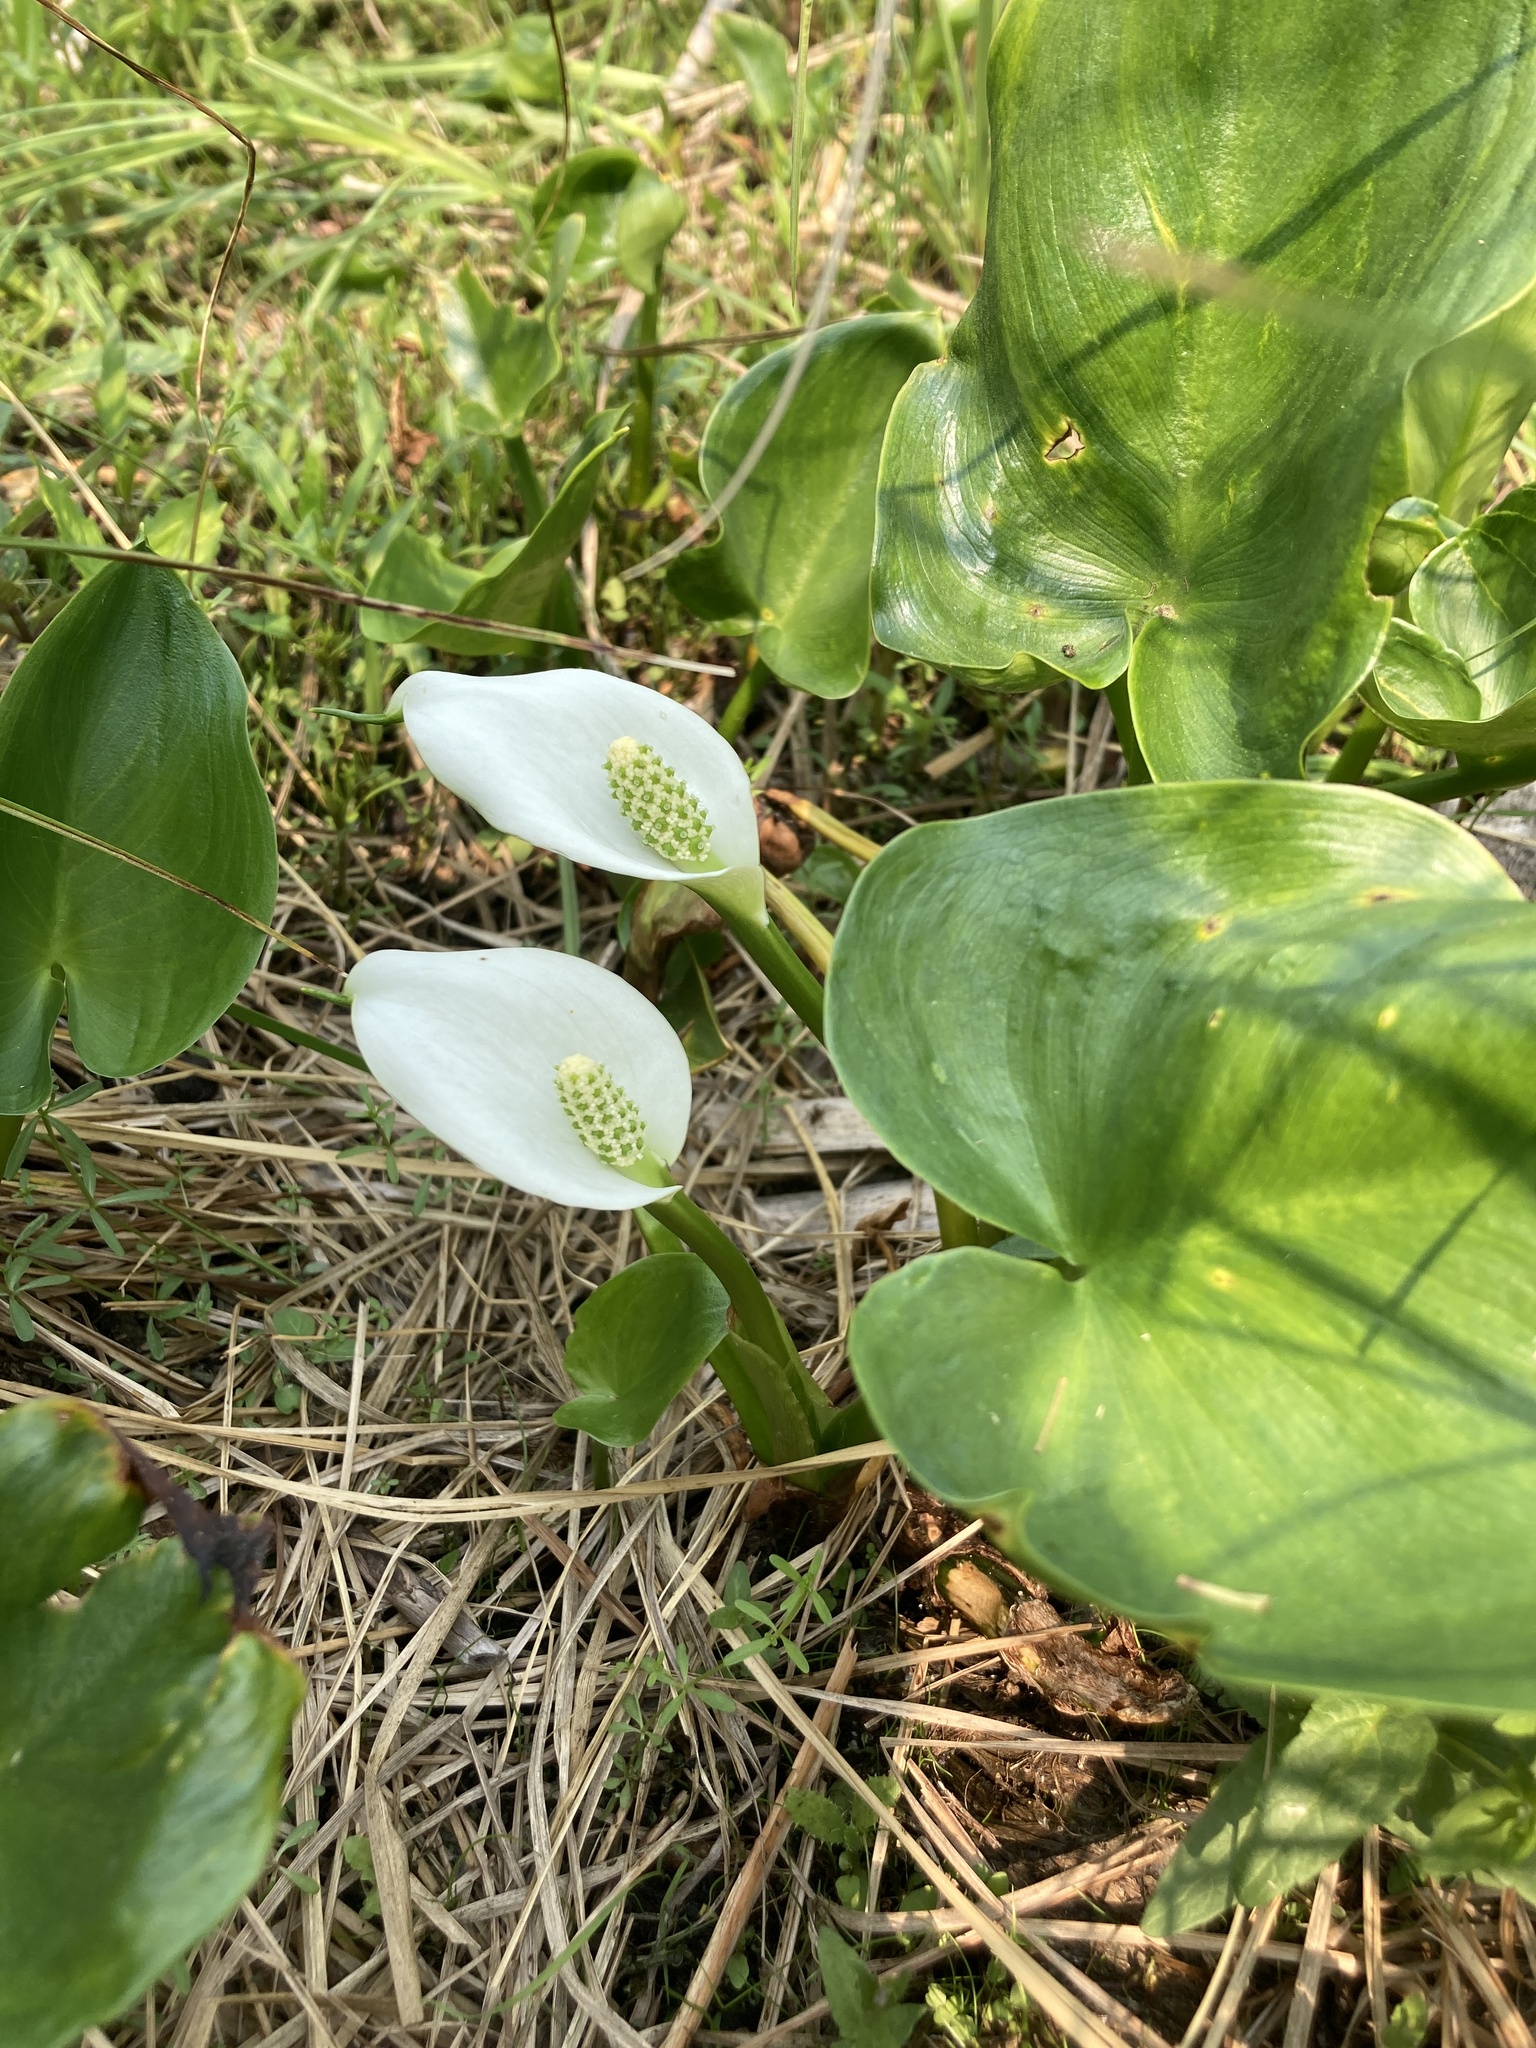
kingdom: Plantae
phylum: Tracheophyta
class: Liliopsida
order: Alismatales
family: Araceae
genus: Calla
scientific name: Calla palustris
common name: Bog arum
